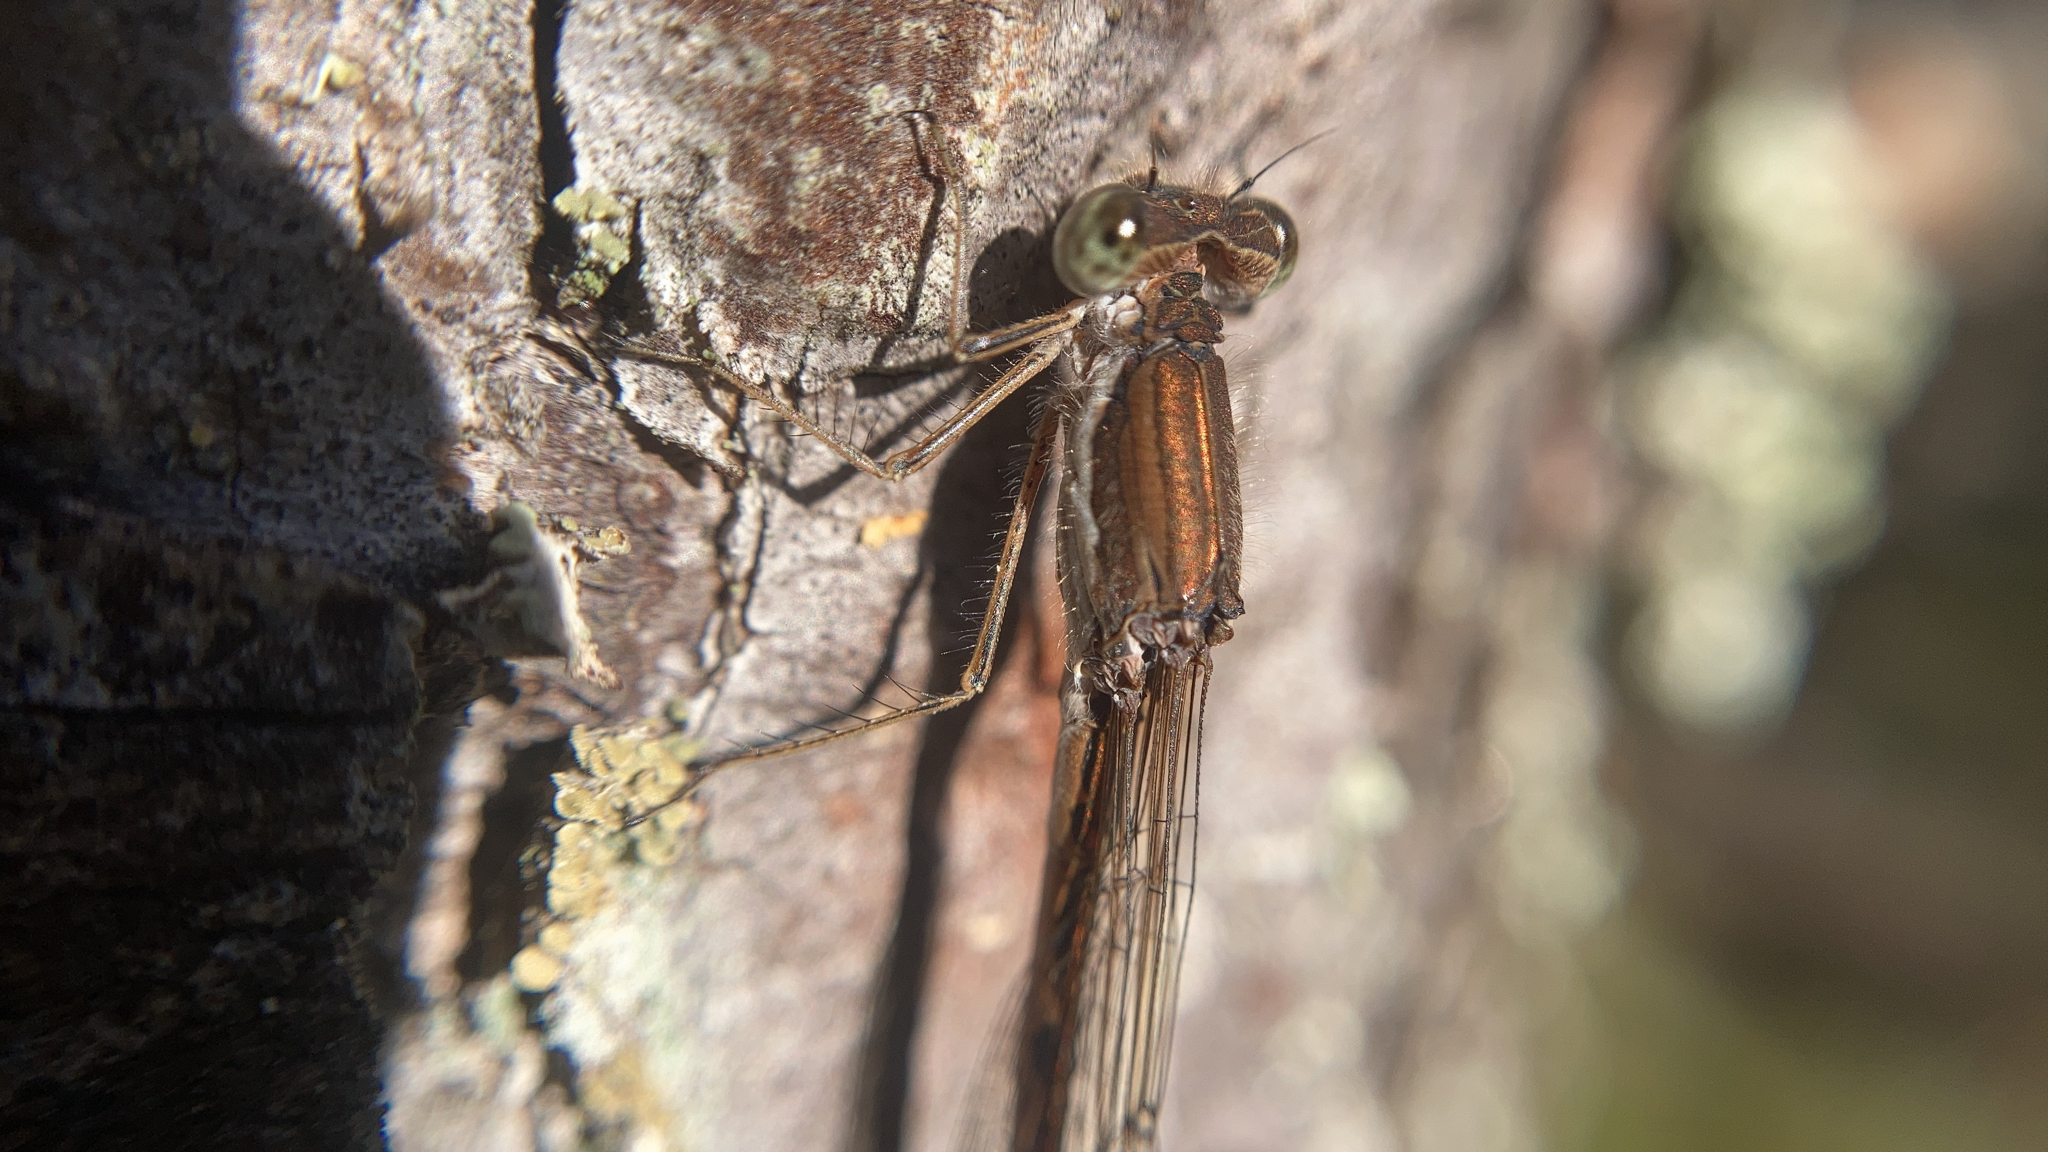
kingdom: Animalia
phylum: Arthropoda
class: Insecta
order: Odonata
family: Lestidae
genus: Sympecma
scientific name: Sympecma fusca
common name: Common winter damsel
